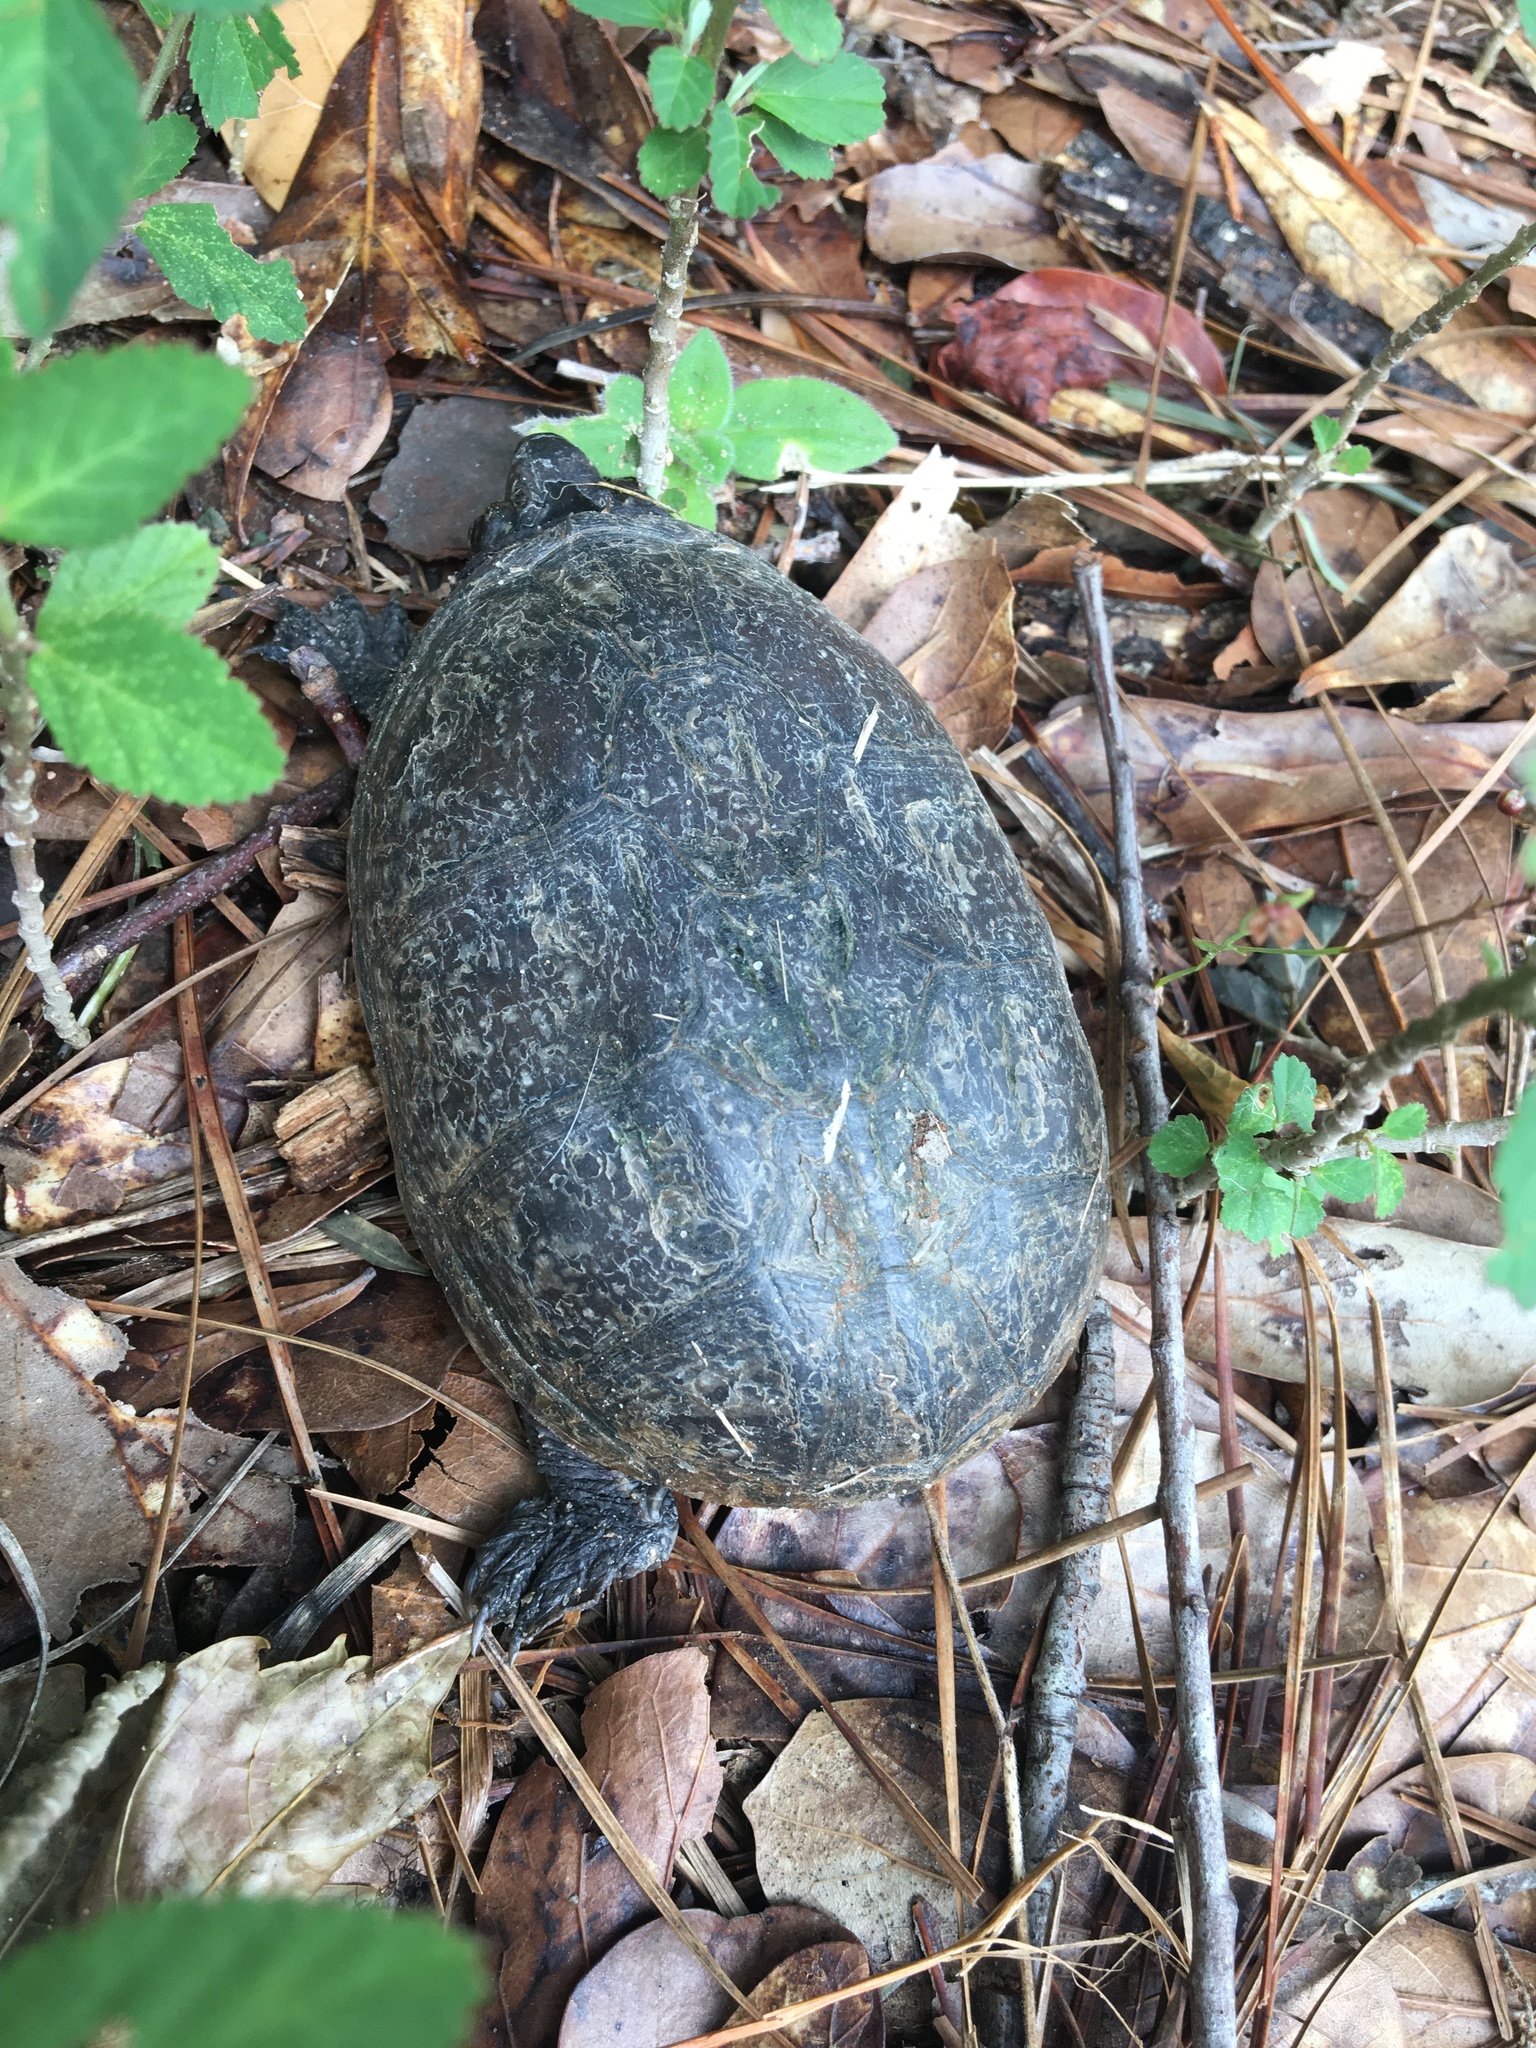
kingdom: Animalia
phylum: Chordata
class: Testudines
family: Kinosternidae
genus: Sternotherus
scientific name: Sternotherus odoratus
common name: Common musk turtle
